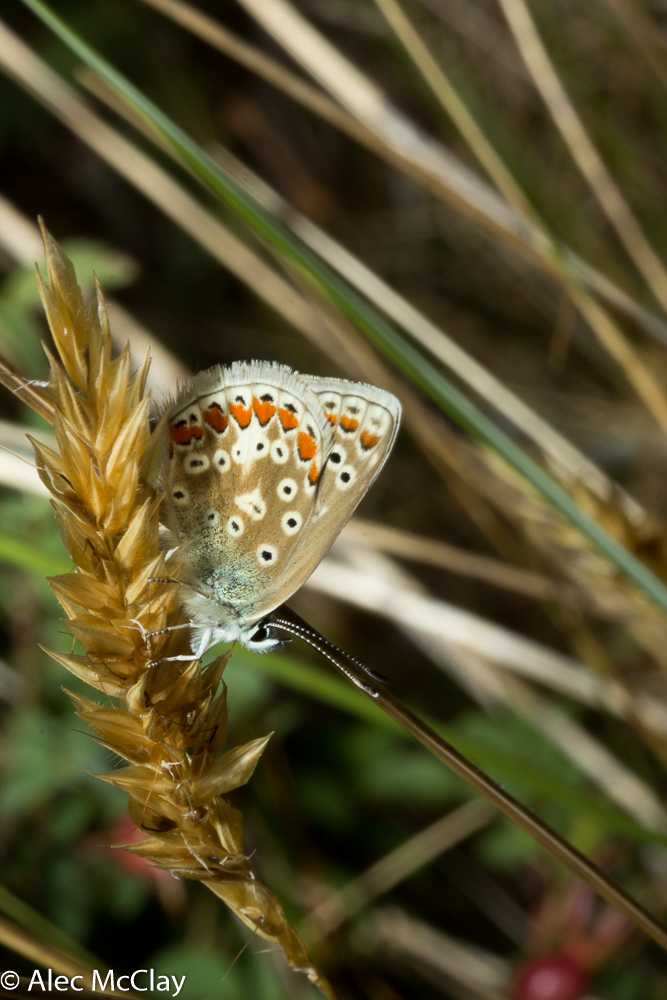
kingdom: Animalia
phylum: Arthropoda
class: Insecta
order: Lepidoptera
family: Lycaenidae
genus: Polyommatus
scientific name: Polyommatus icarus
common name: Common blue
